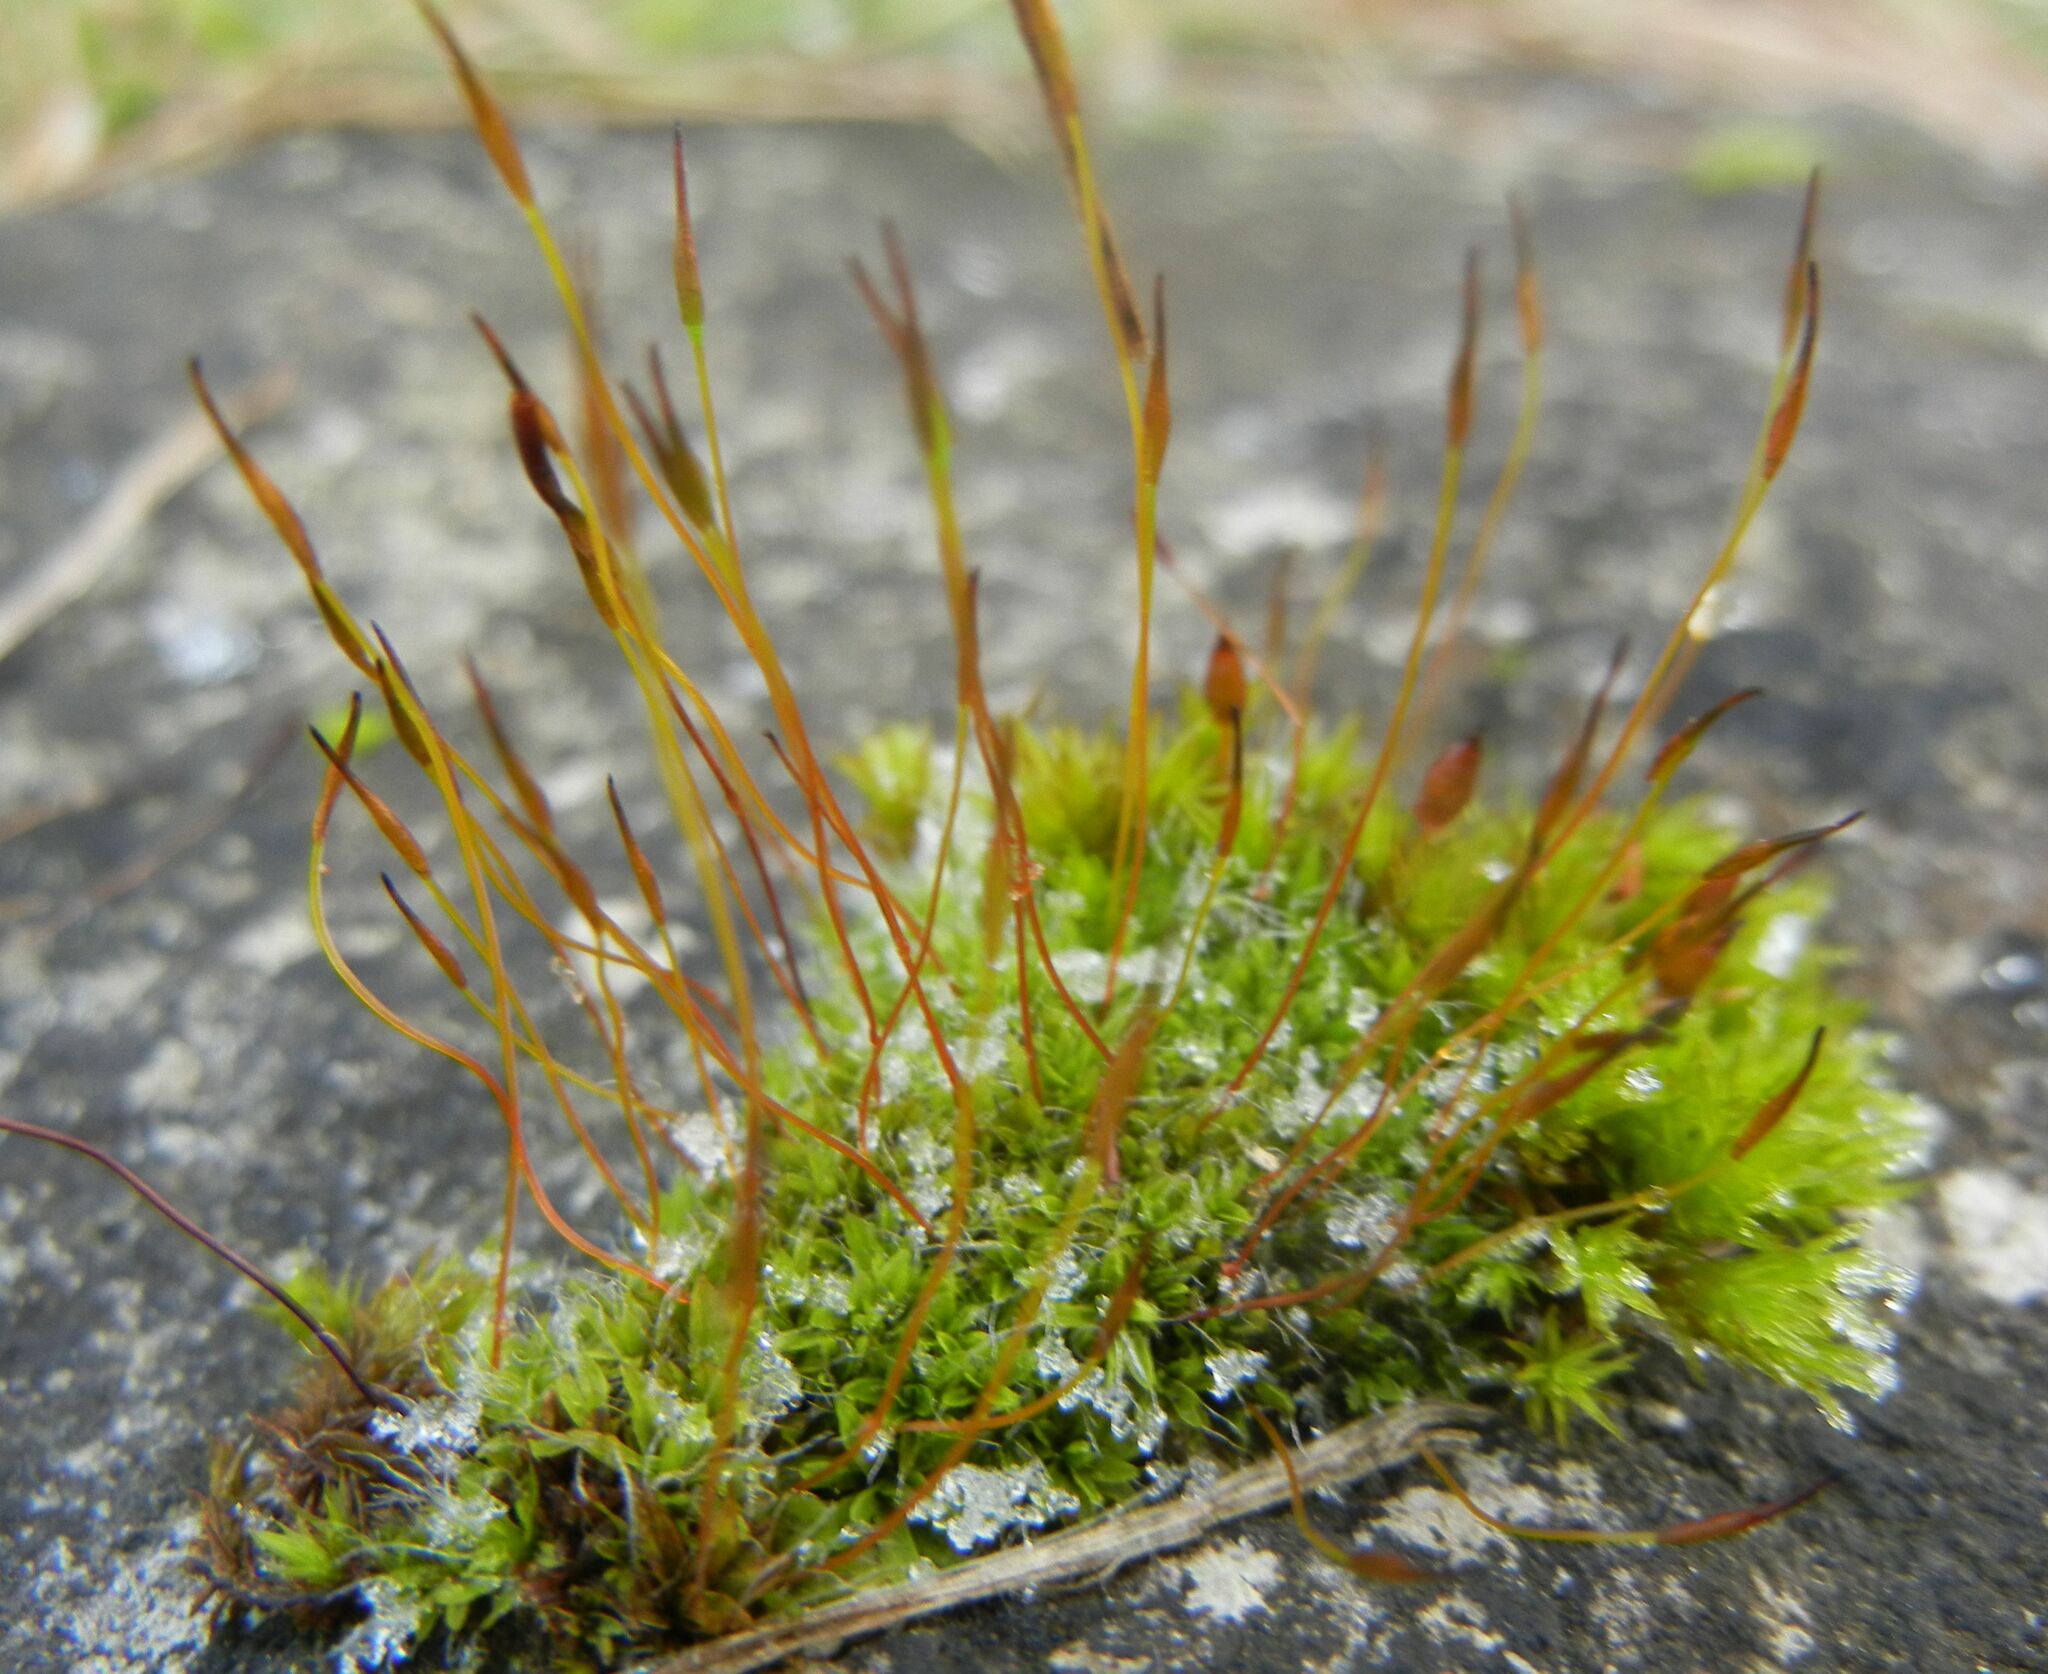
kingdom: Plantae
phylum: Bryophyta
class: Bryopsida
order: Pottiales
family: Pottiaceae
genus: Tortula
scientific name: Tortula muralis
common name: Wall screw-moss
